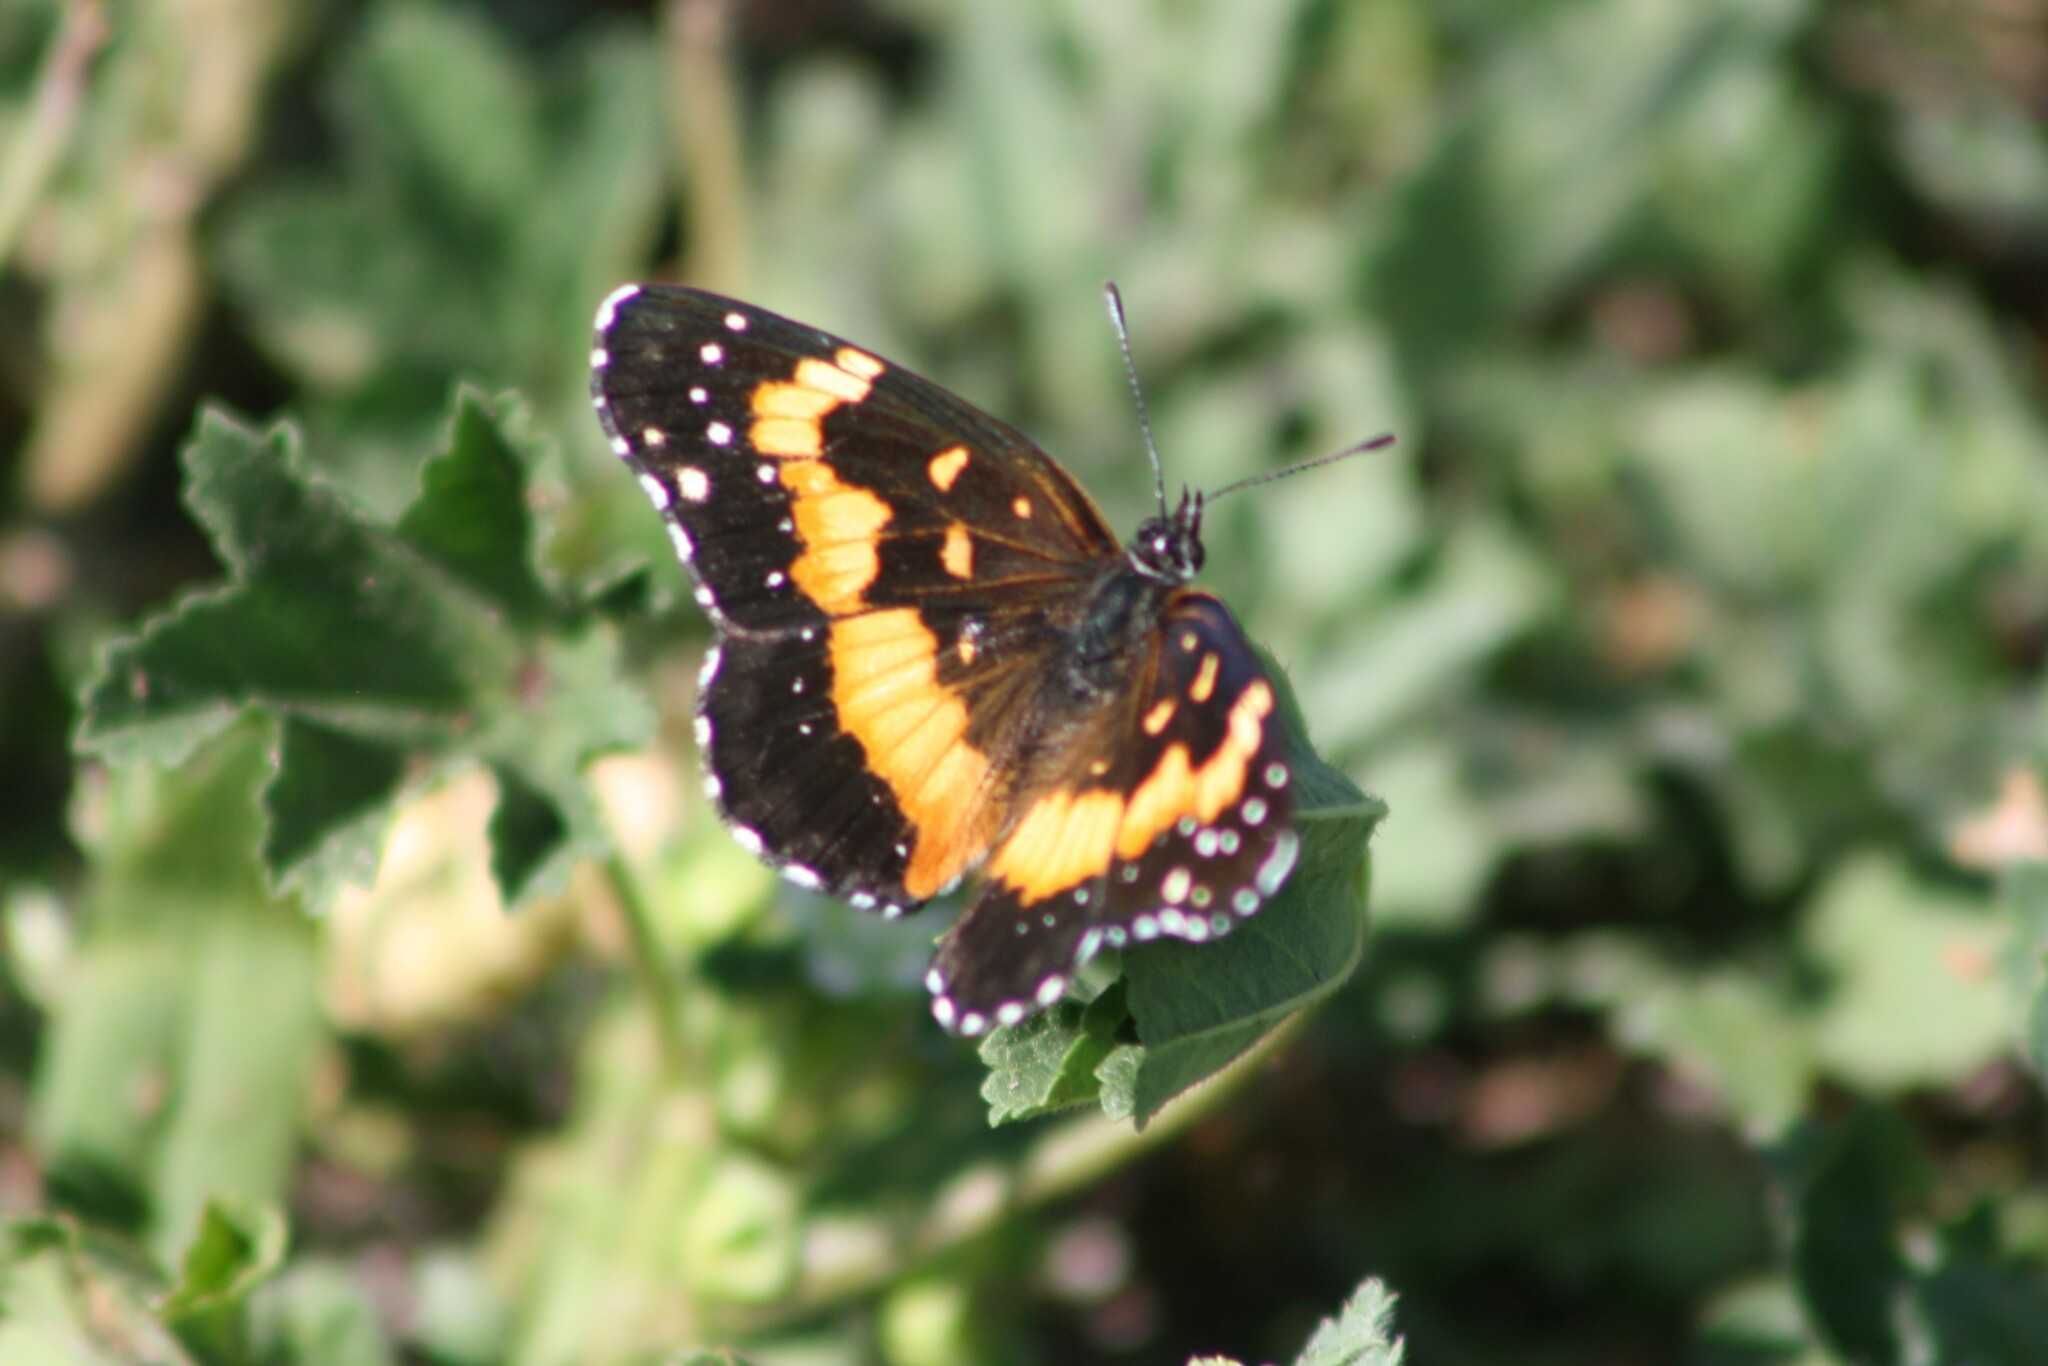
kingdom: Animalia
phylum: Arthropoda
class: Insecta
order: Lepidoptera
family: Nymphalidae
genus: Chlosyne
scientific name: Chlosyne lacinia
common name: Bordered patch
